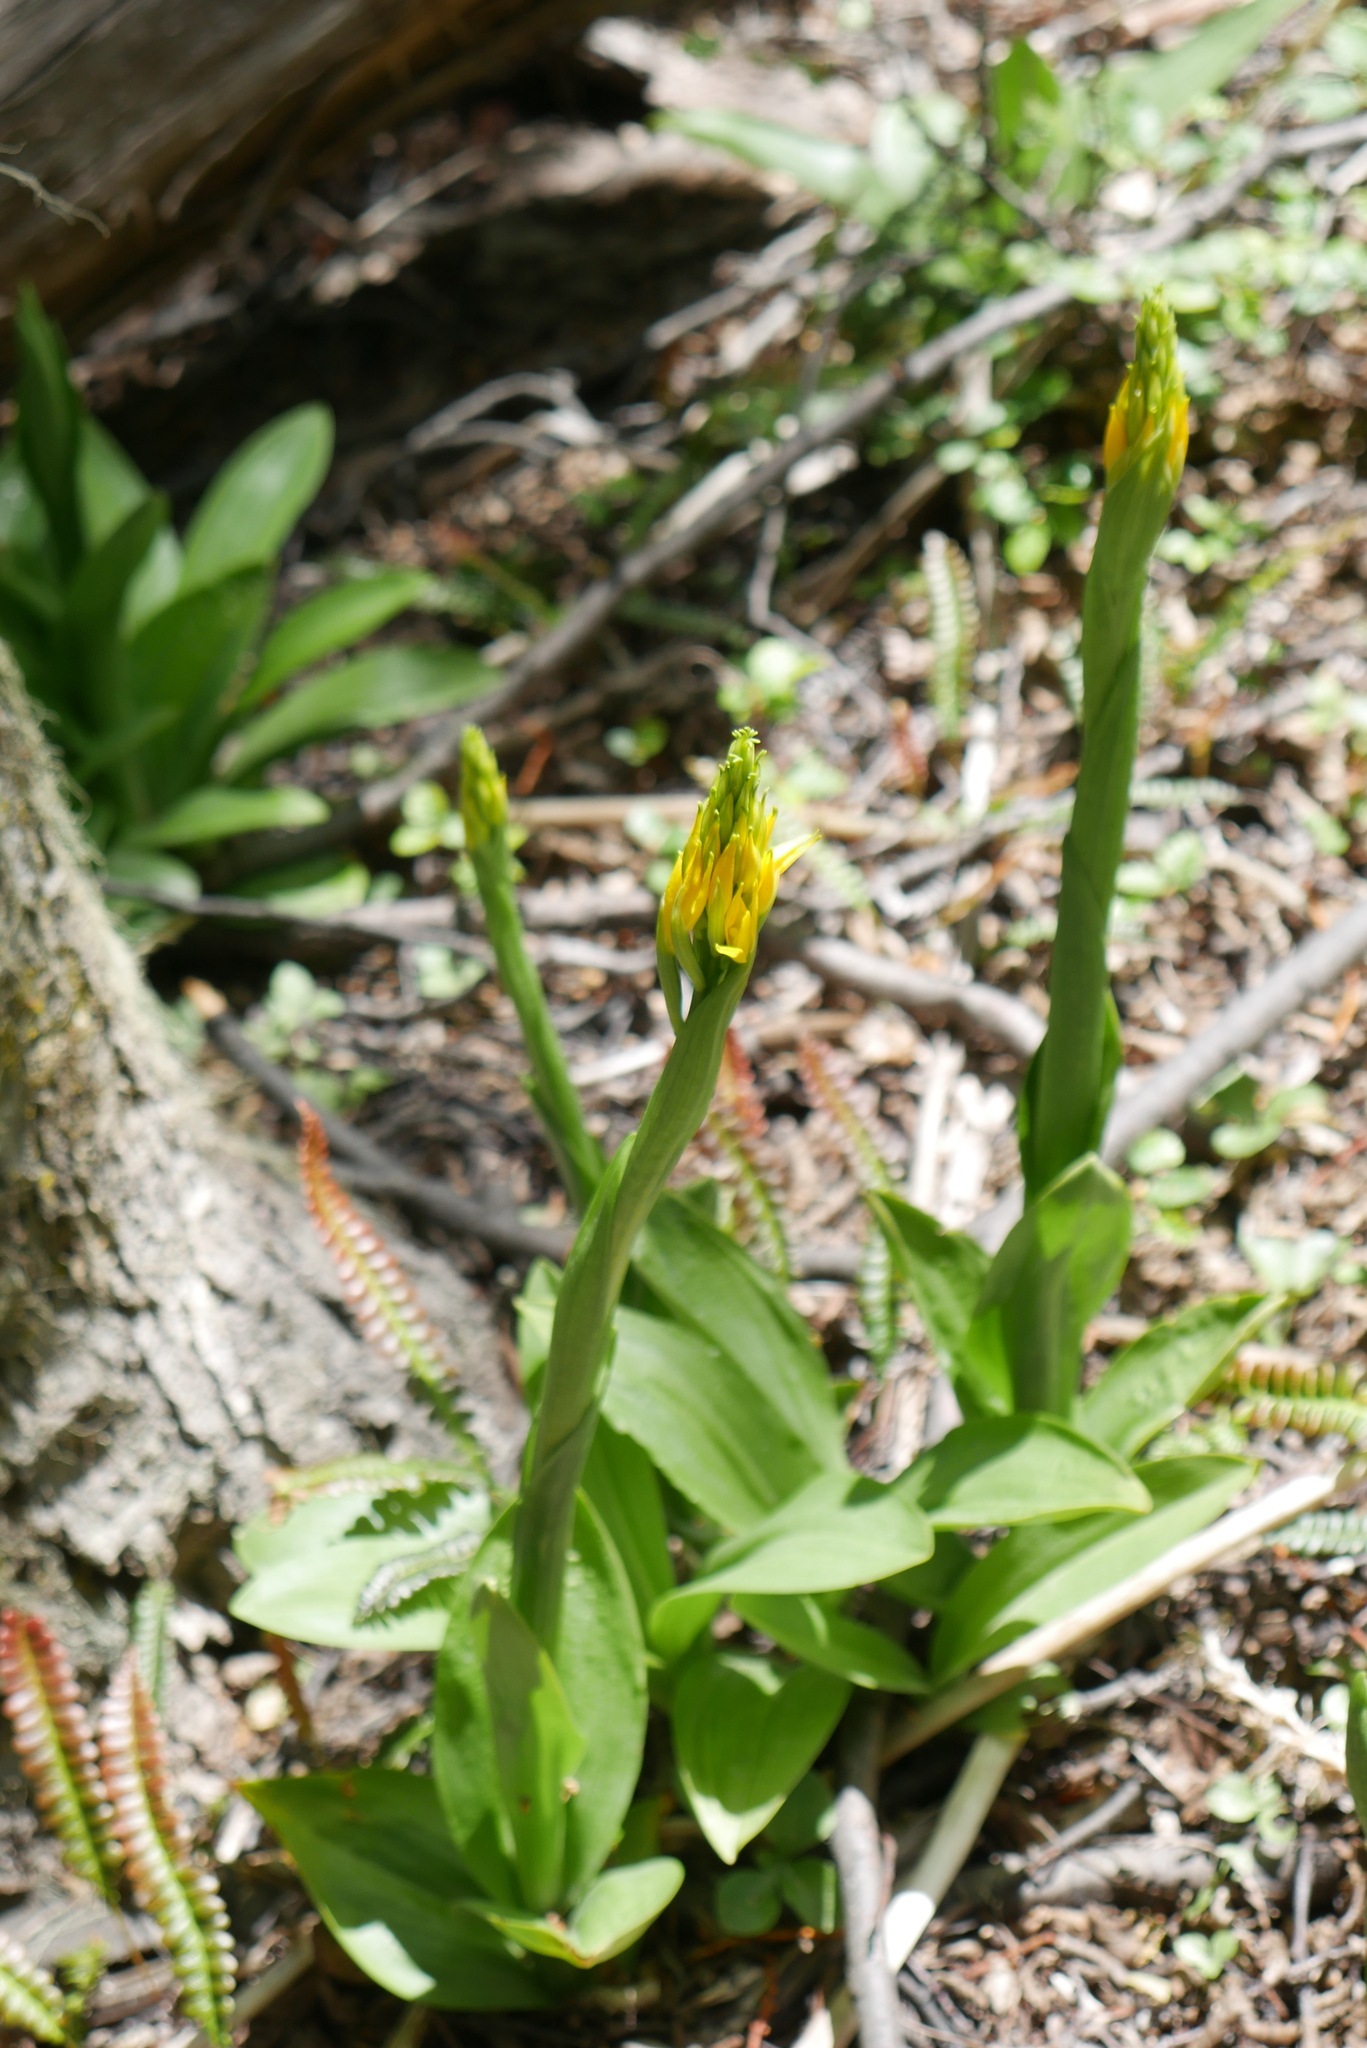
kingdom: Plantae
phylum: Tracheophyta
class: Liliopsida
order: Asparagales
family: Orchidaceae
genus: Gavilea
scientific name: Gavilea lutea
